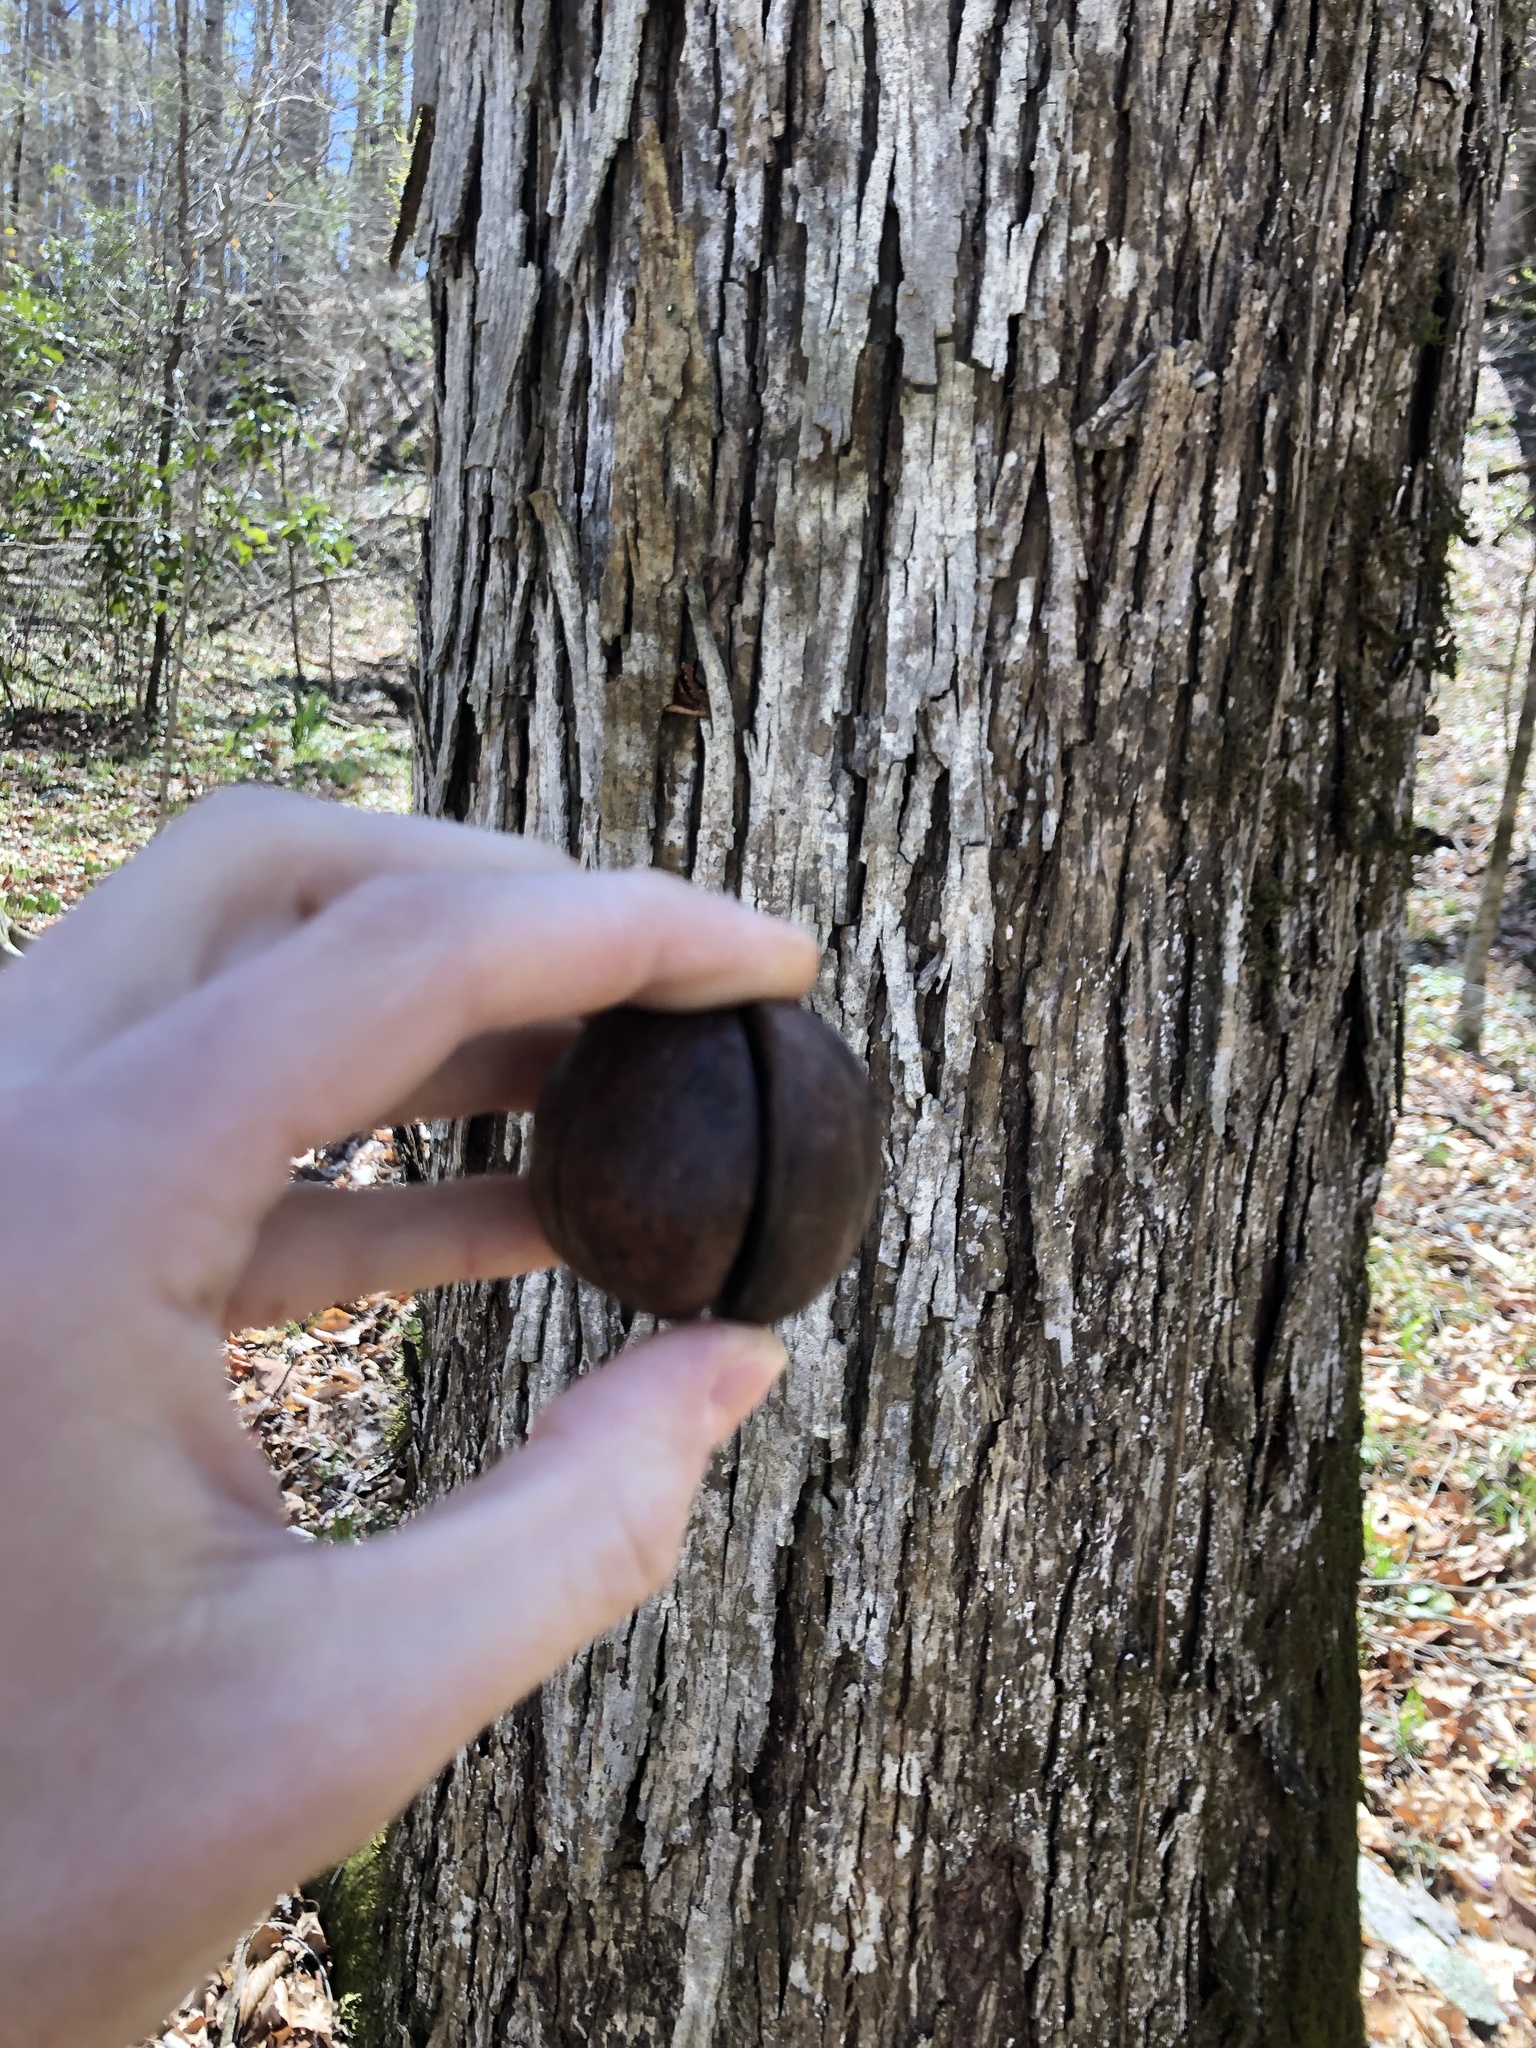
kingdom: Plantae
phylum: Tracheophyta
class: Magnoliopsida
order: Fagales
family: Juglandaceae
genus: Carya
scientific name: Carya carolinae-septentrionalis
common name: Carolina hickory
